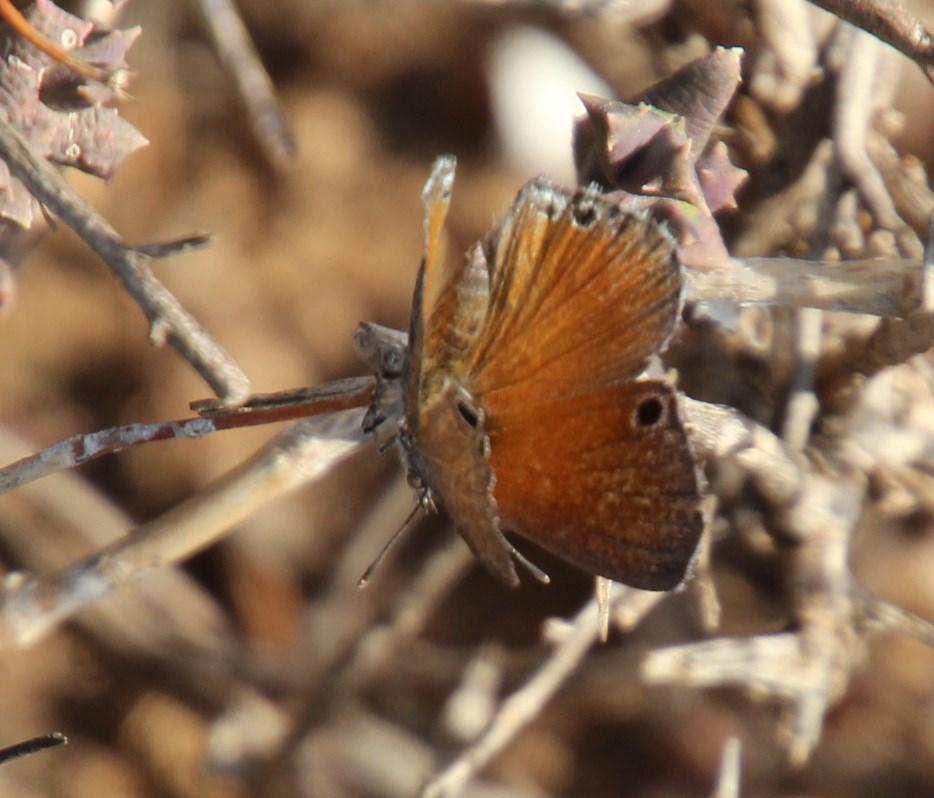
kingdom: Animalia
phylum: Arthropoda
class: Insecta
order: Lepidoptera
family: Lycaenidae
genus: Leptomyrina
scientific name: Leptomyrina lara
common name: Cape black-eye
